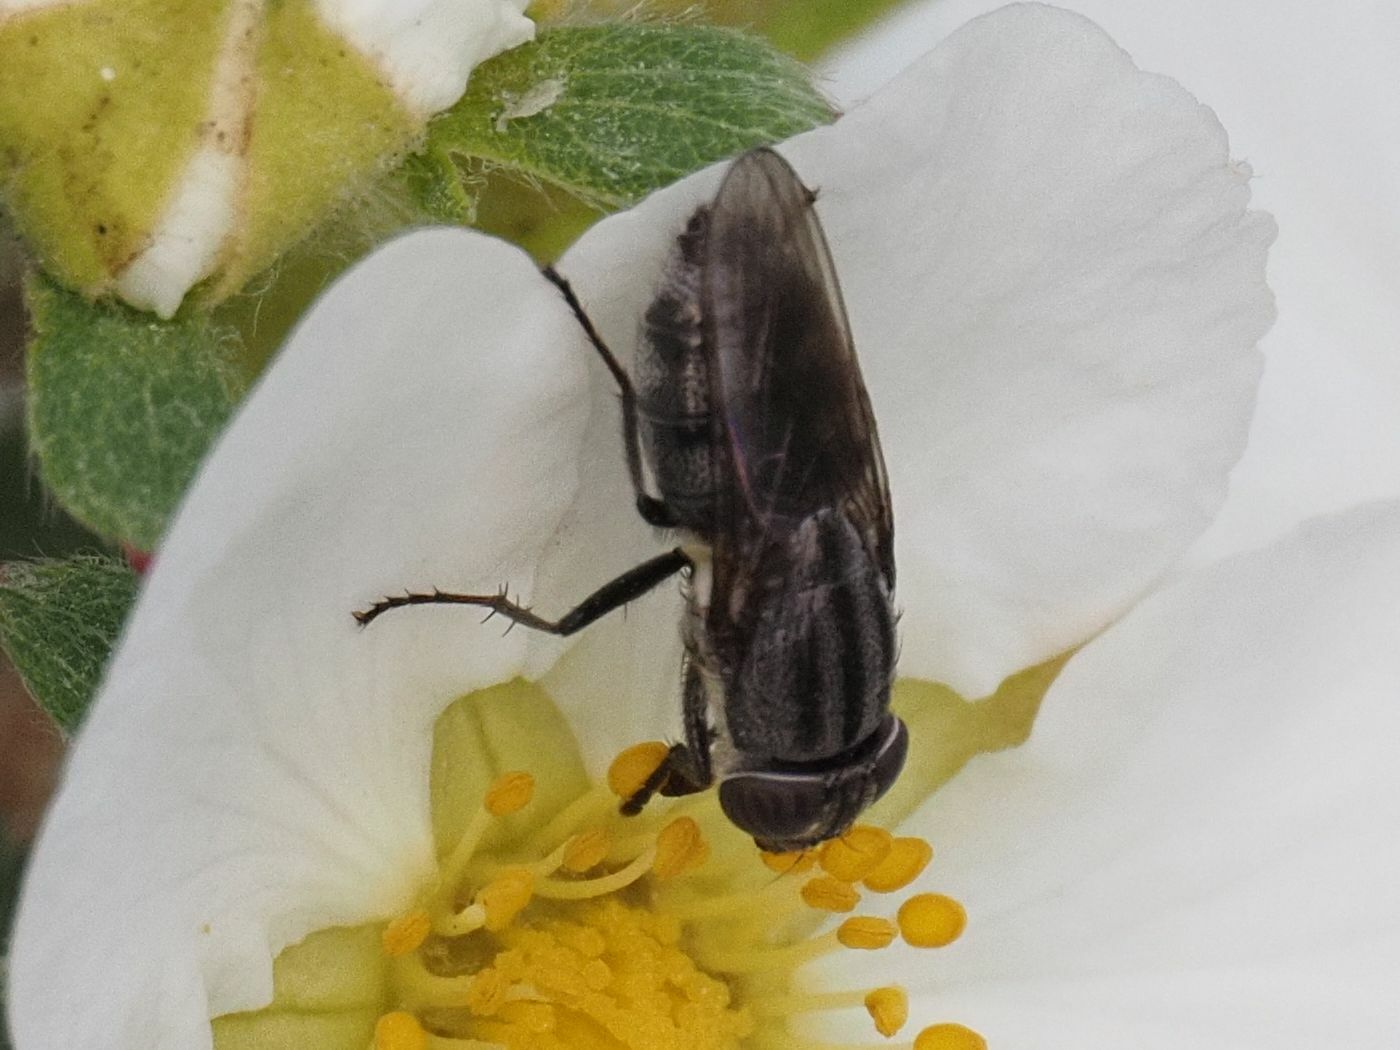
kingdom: Animalia
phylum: Arthropoda
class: Insecta
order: Diptera
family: Calliphoridae
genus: Stomorhina
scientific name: Stomorhina lunata
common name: Locust blowfly
